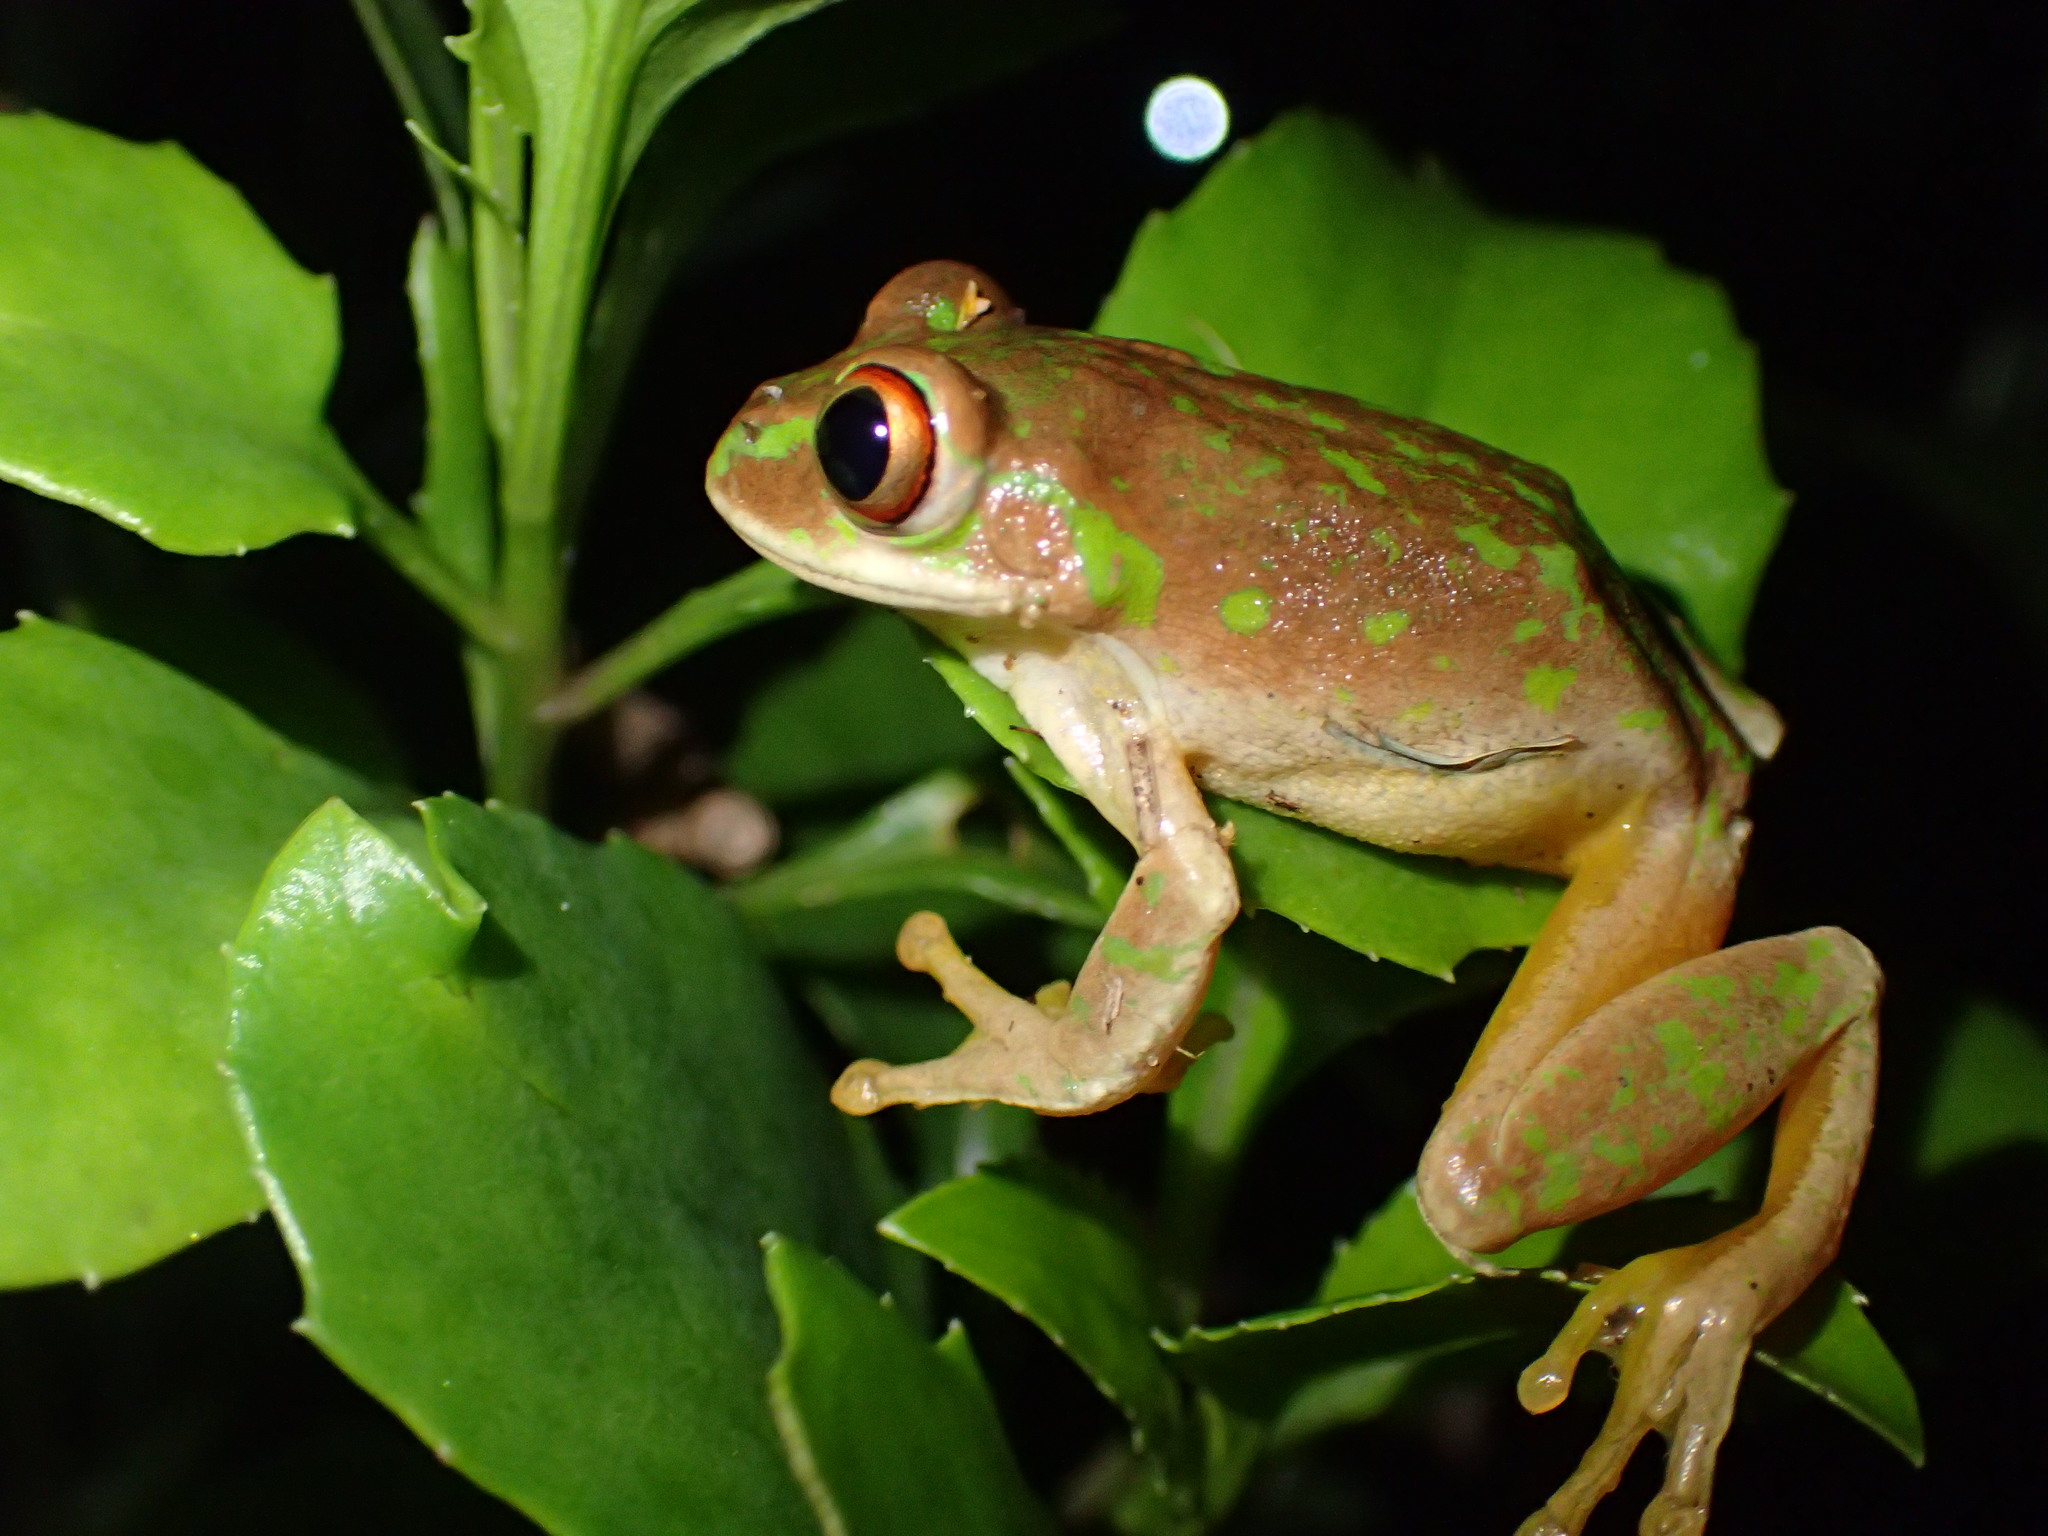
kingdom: Animalia
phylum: Chordata
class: Amphibia
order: Anura
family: Arthroleptidae
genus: Leptopelis
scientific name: Leptopelis natalensis
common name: Natal tree frog
